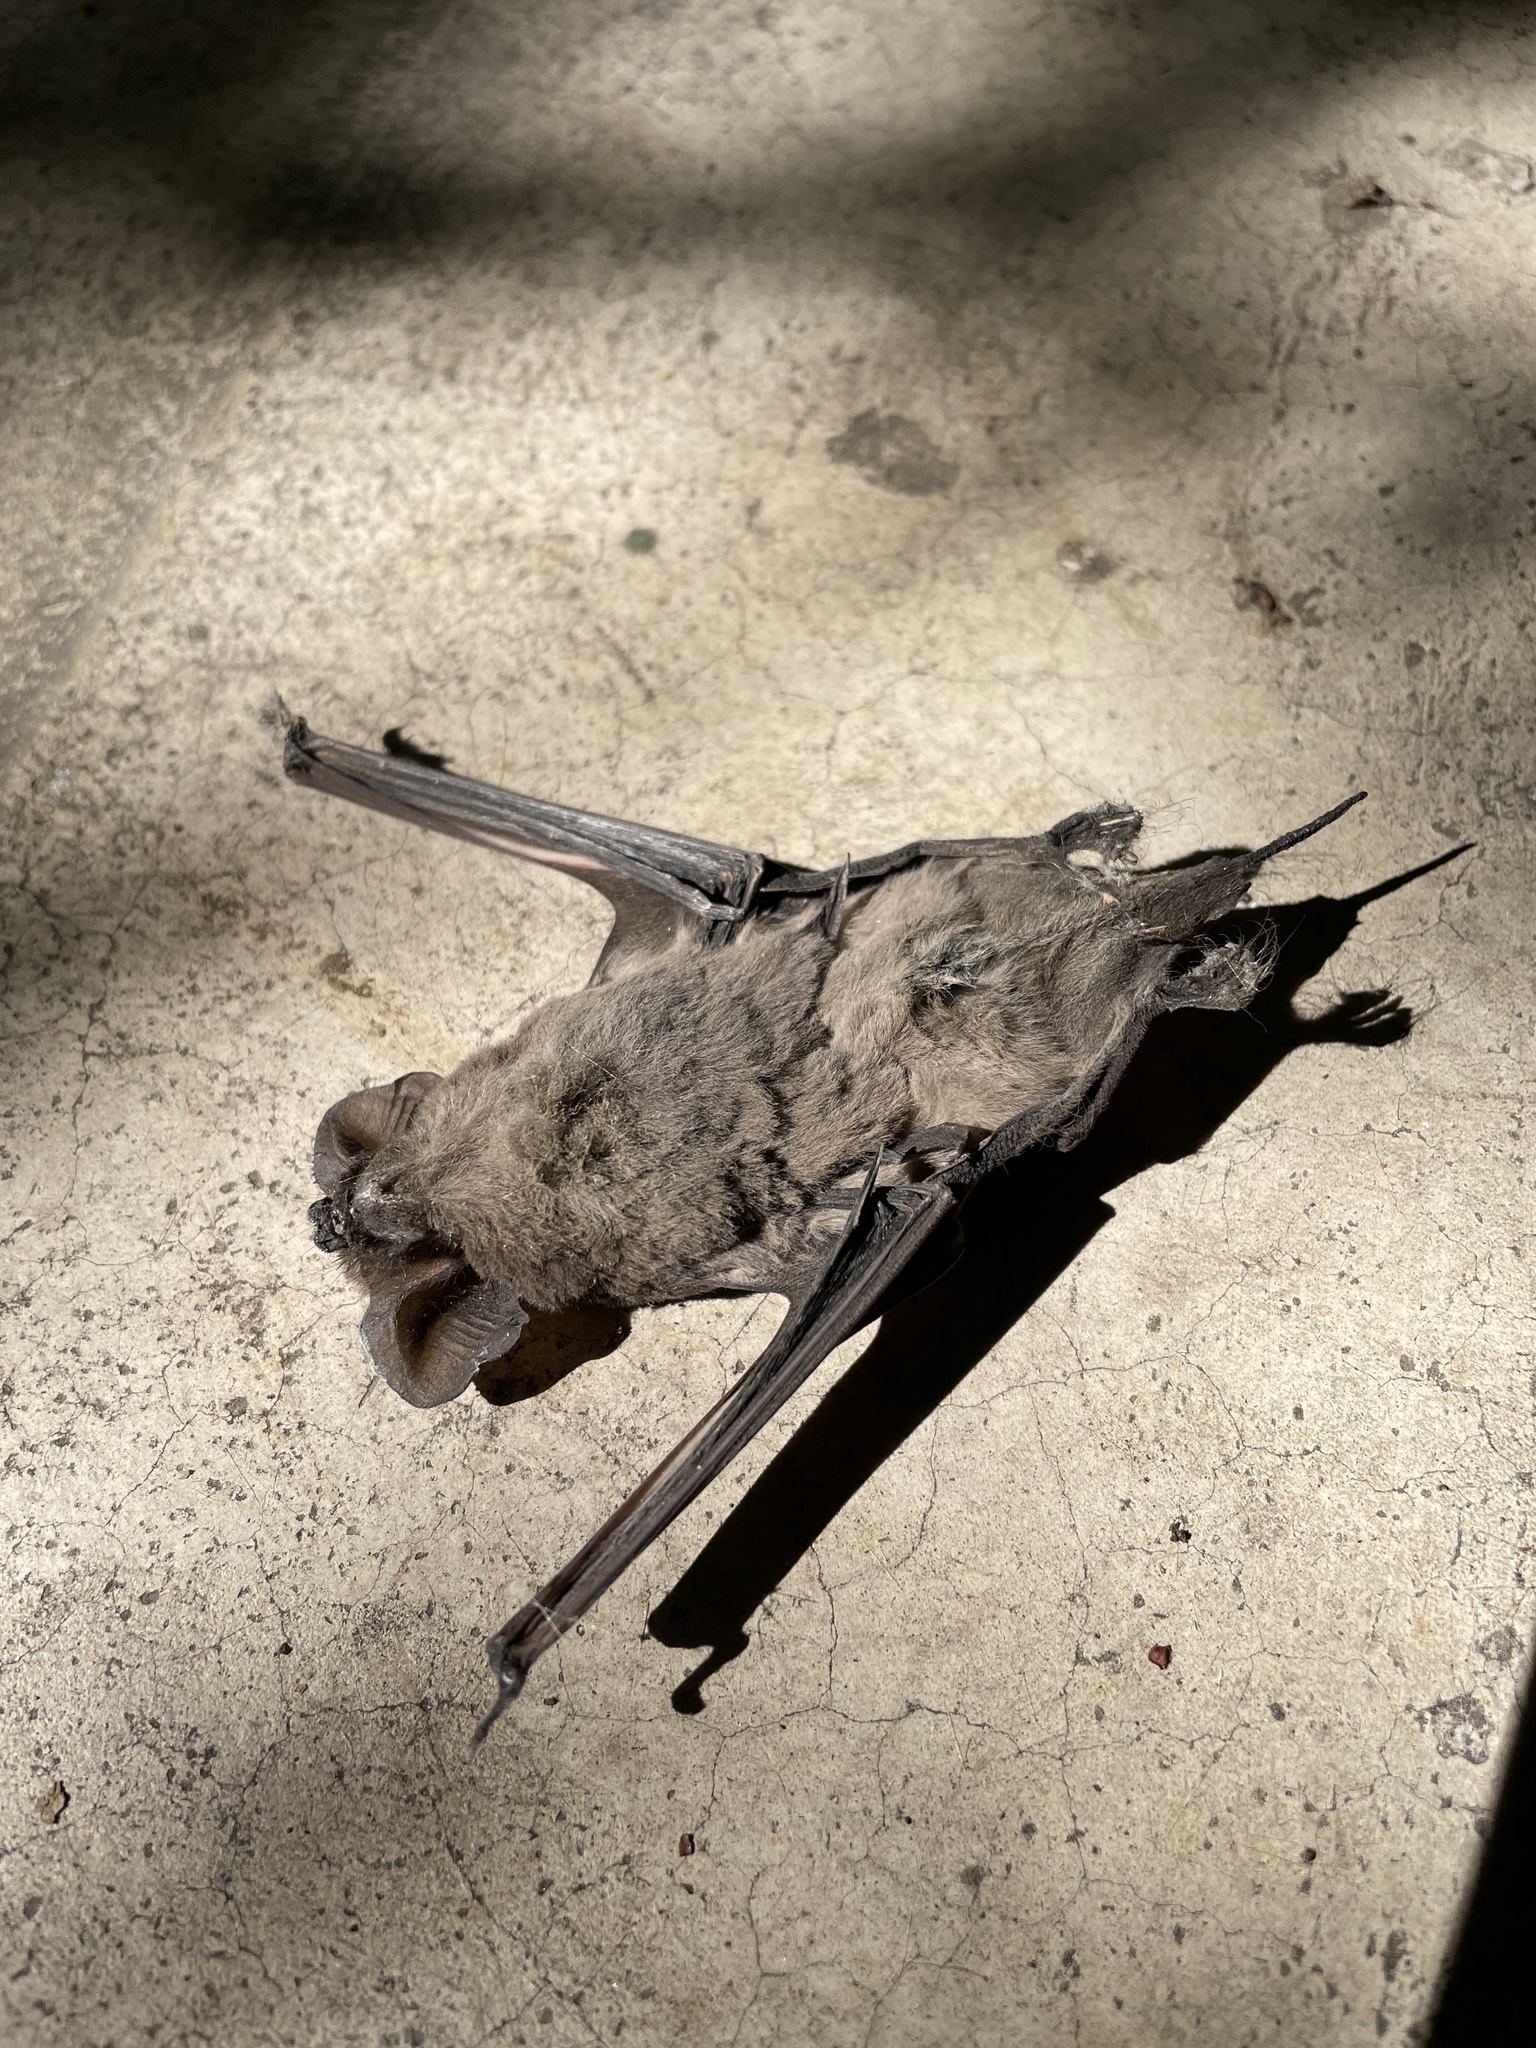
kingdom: Animalia
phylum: Chordata
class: Mammalia
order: Chiroptera
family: Molossidae
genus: Tadarida
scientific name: Tadarida brasiliensis
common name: Mexican free-tailed bat
